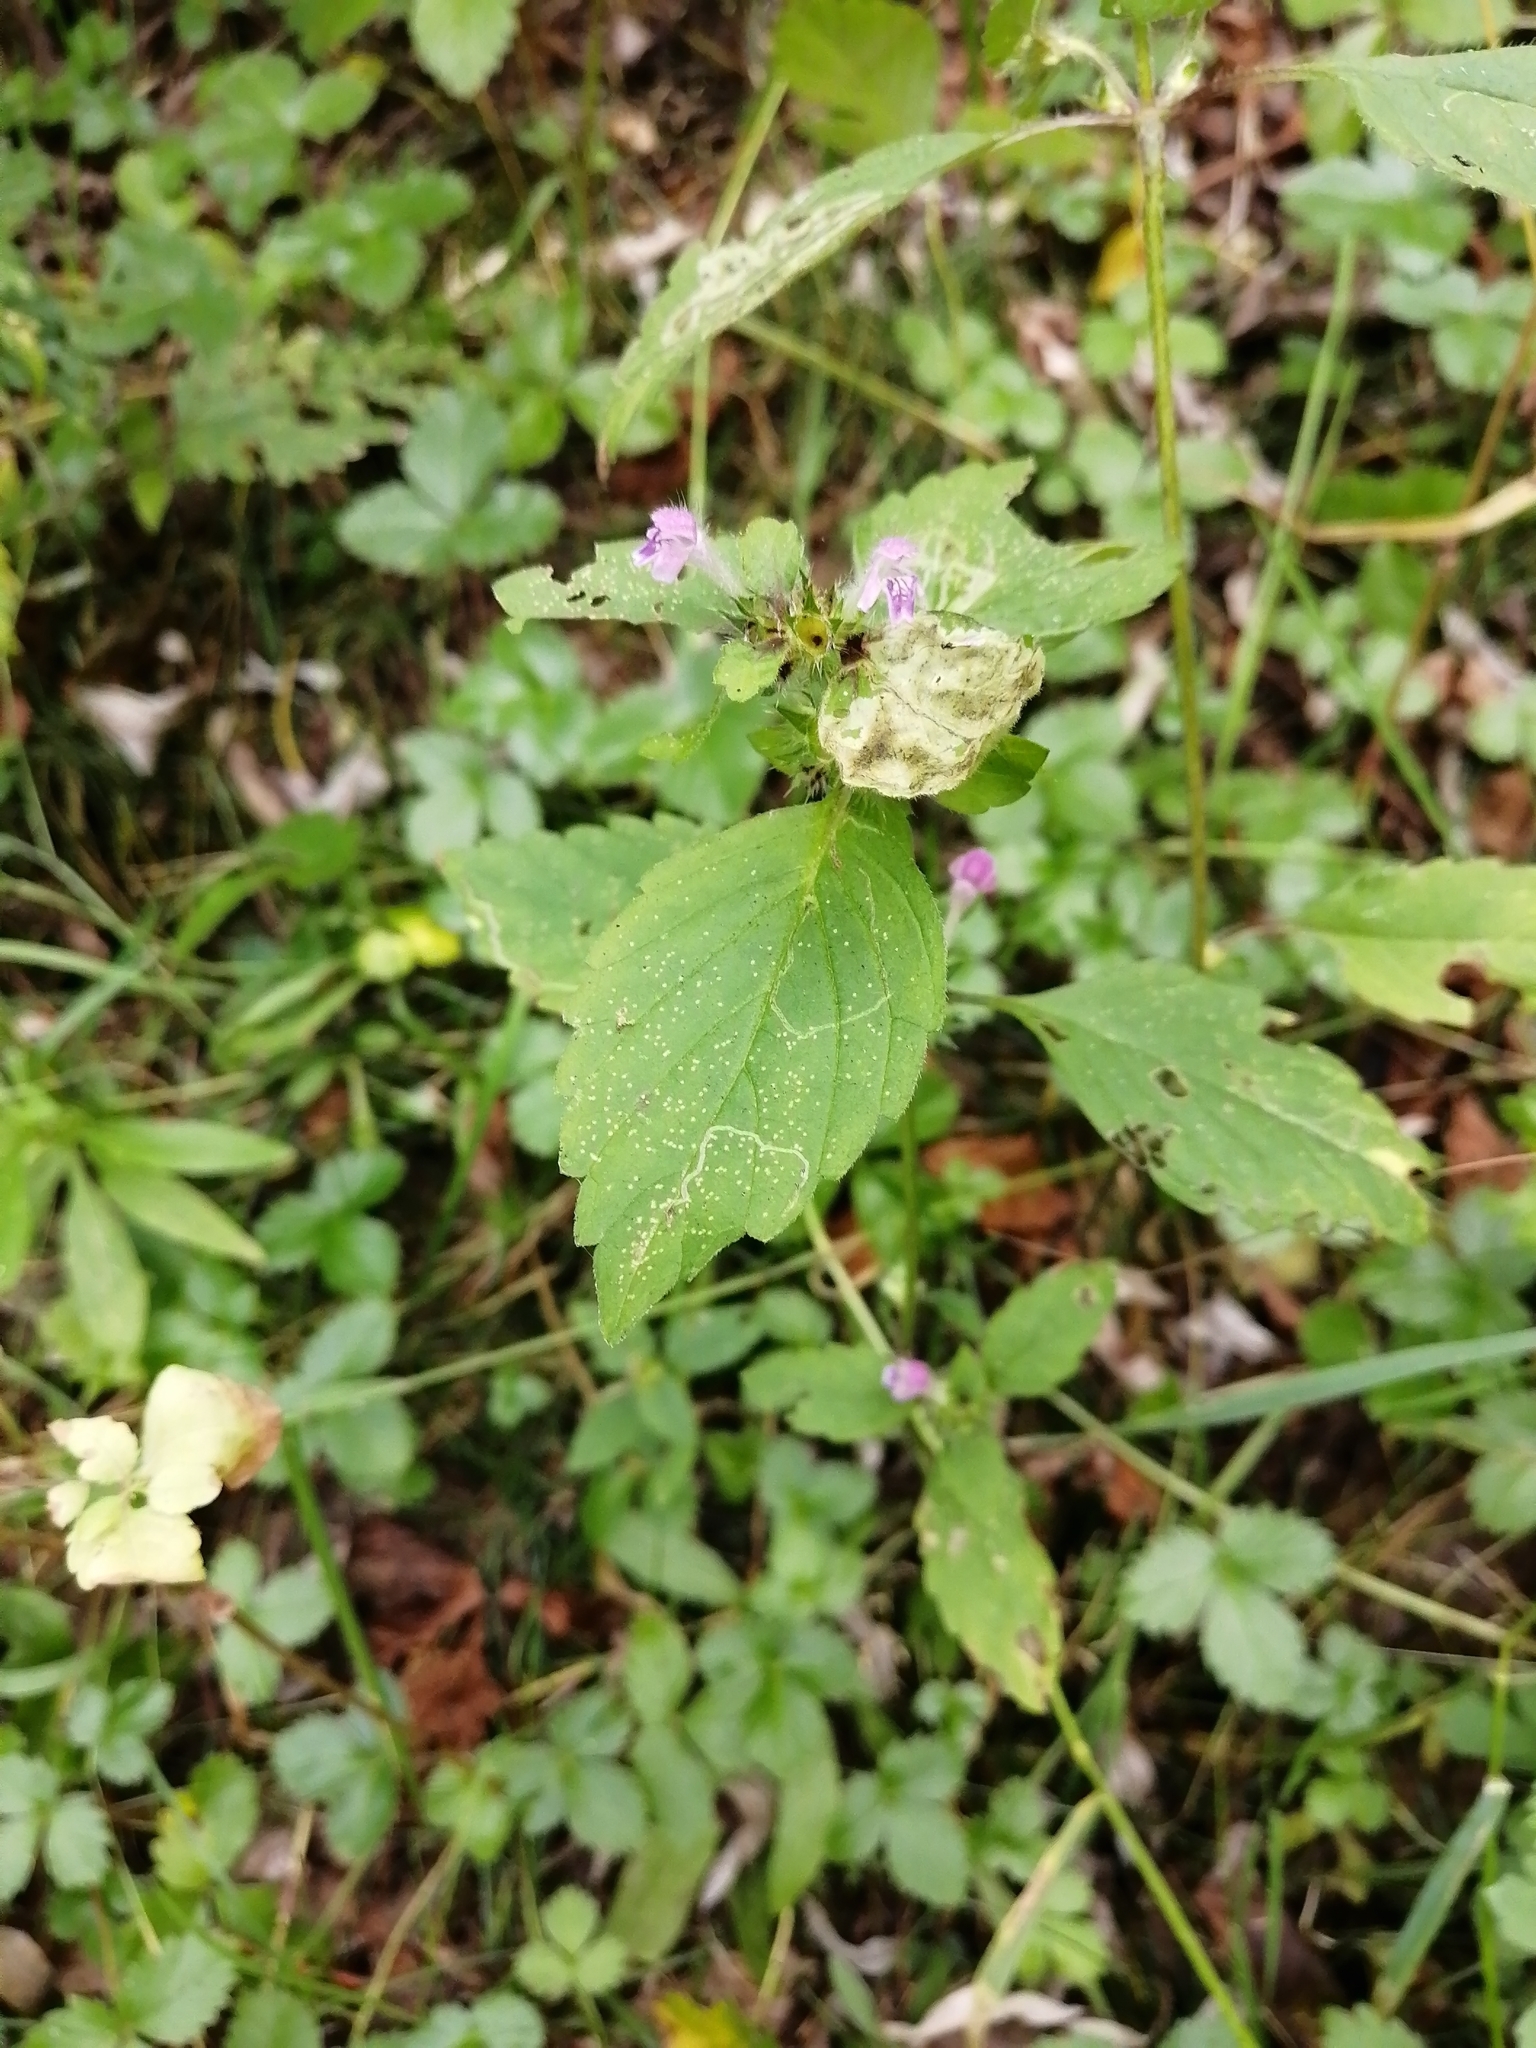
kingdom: Plantae
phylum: Tracheophyta
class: Magnoliopsida
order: Lamiales
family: Lamiaceae
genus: Galeopsis
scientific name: Galeopsis bifida
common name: Bifid hemp-nettle
